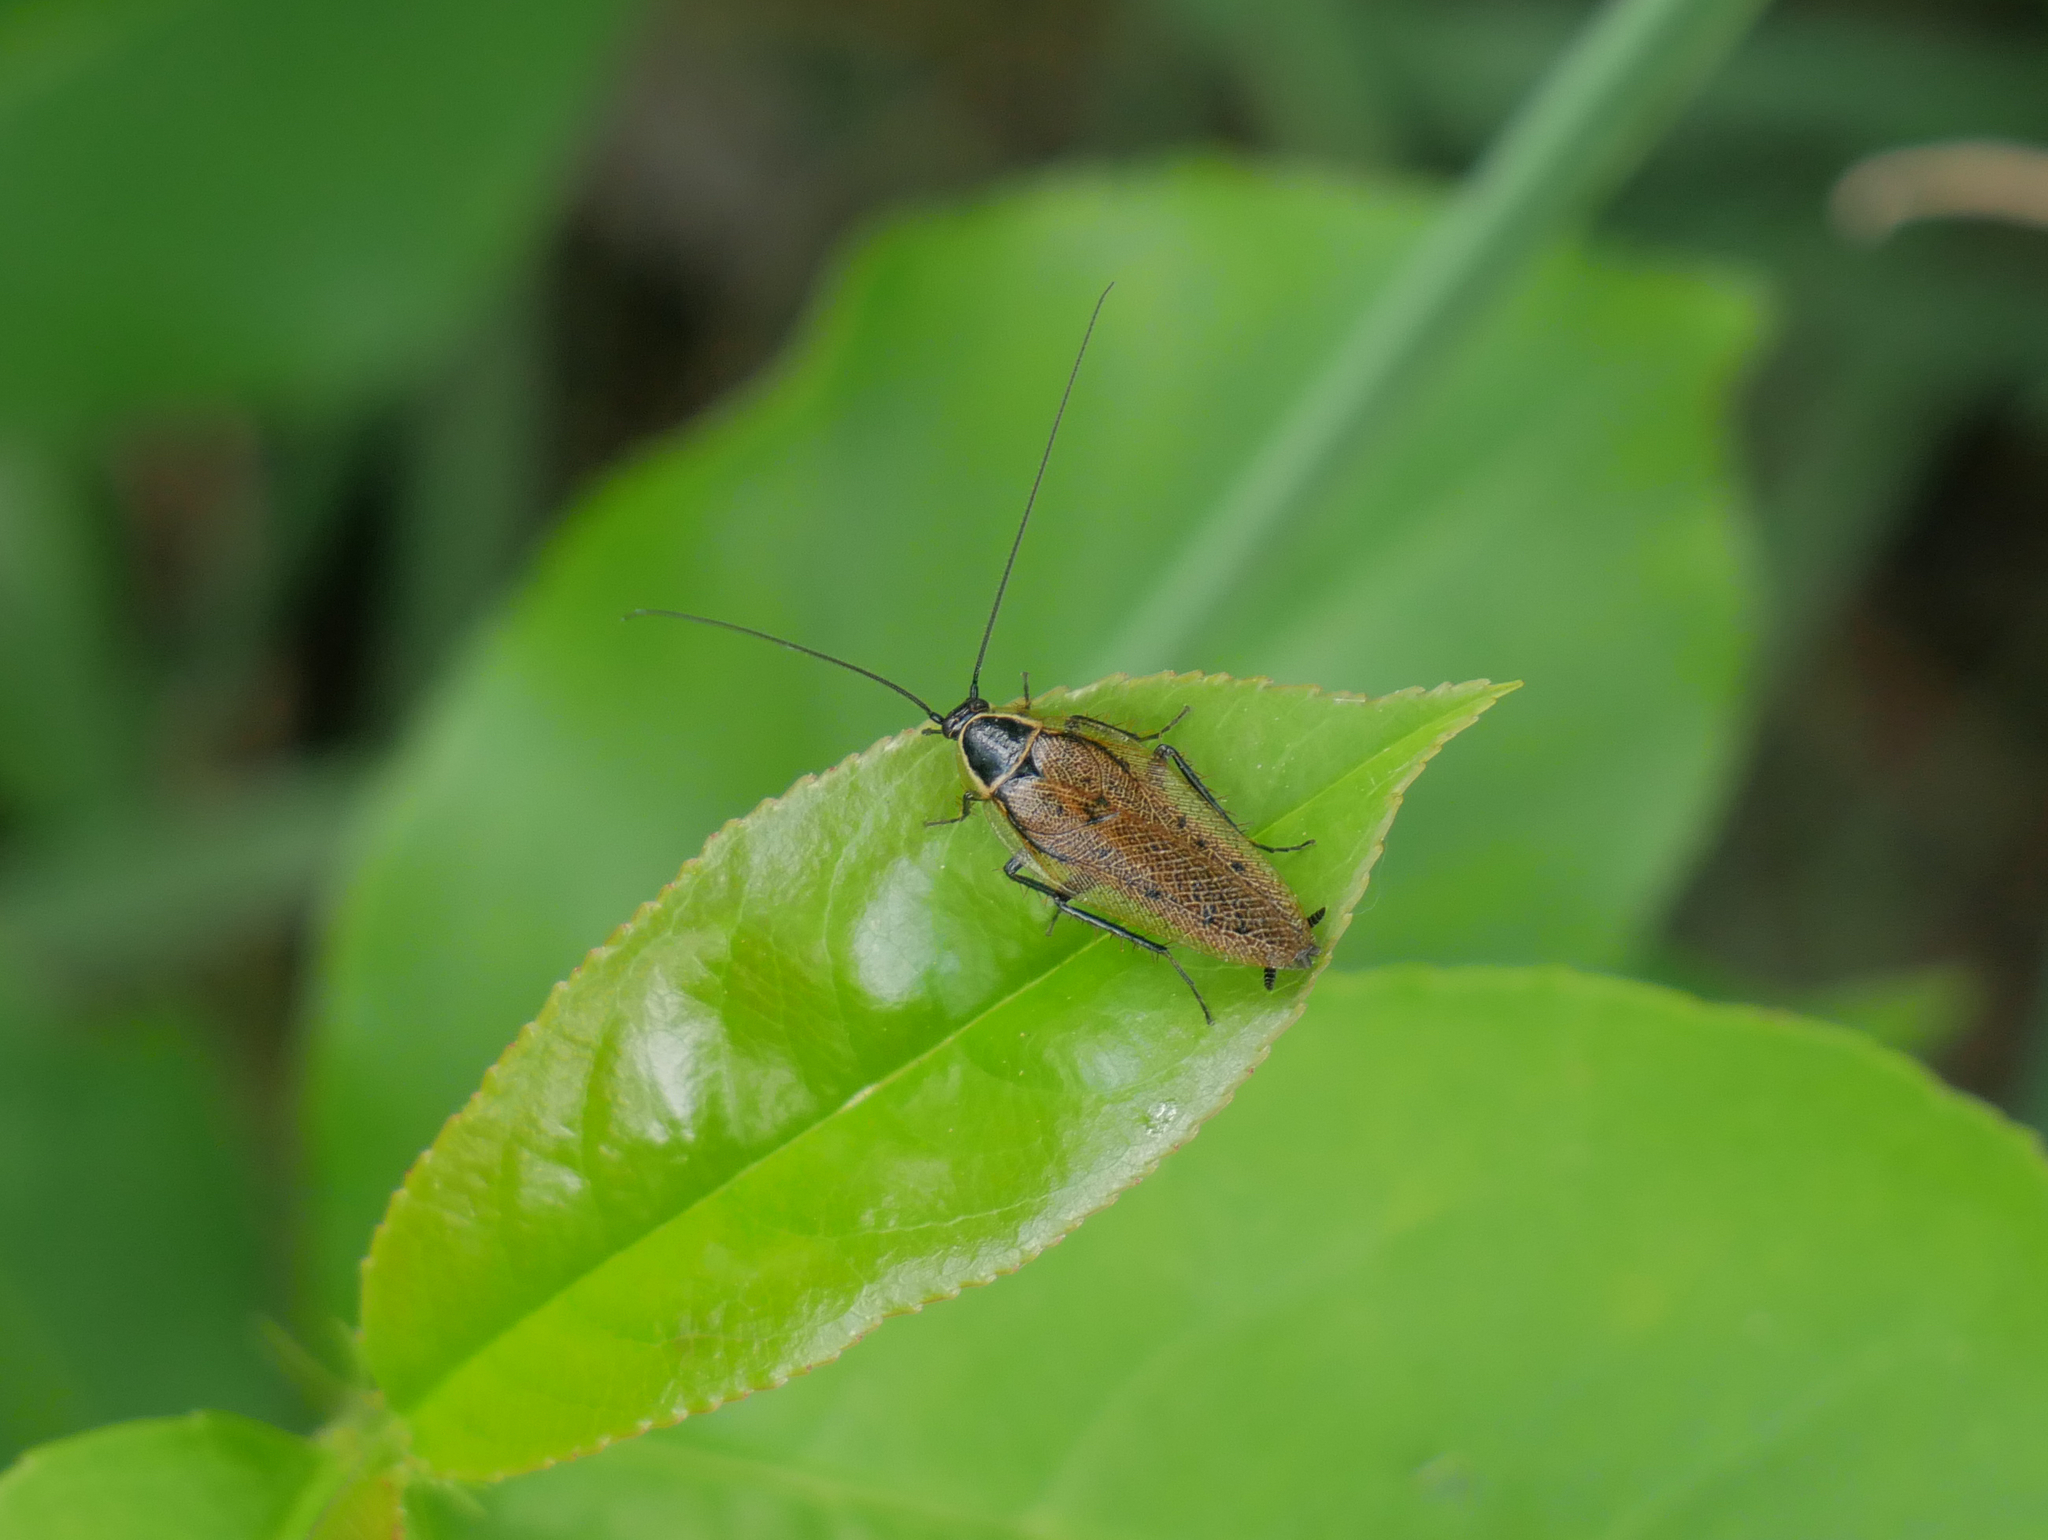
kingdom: Animalia
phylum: Arthropoda
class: Insecta
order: Blattodea
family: Ectobiidae
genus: Ectobius
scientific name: Ectobius sylvestris
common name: Forest cockroach
